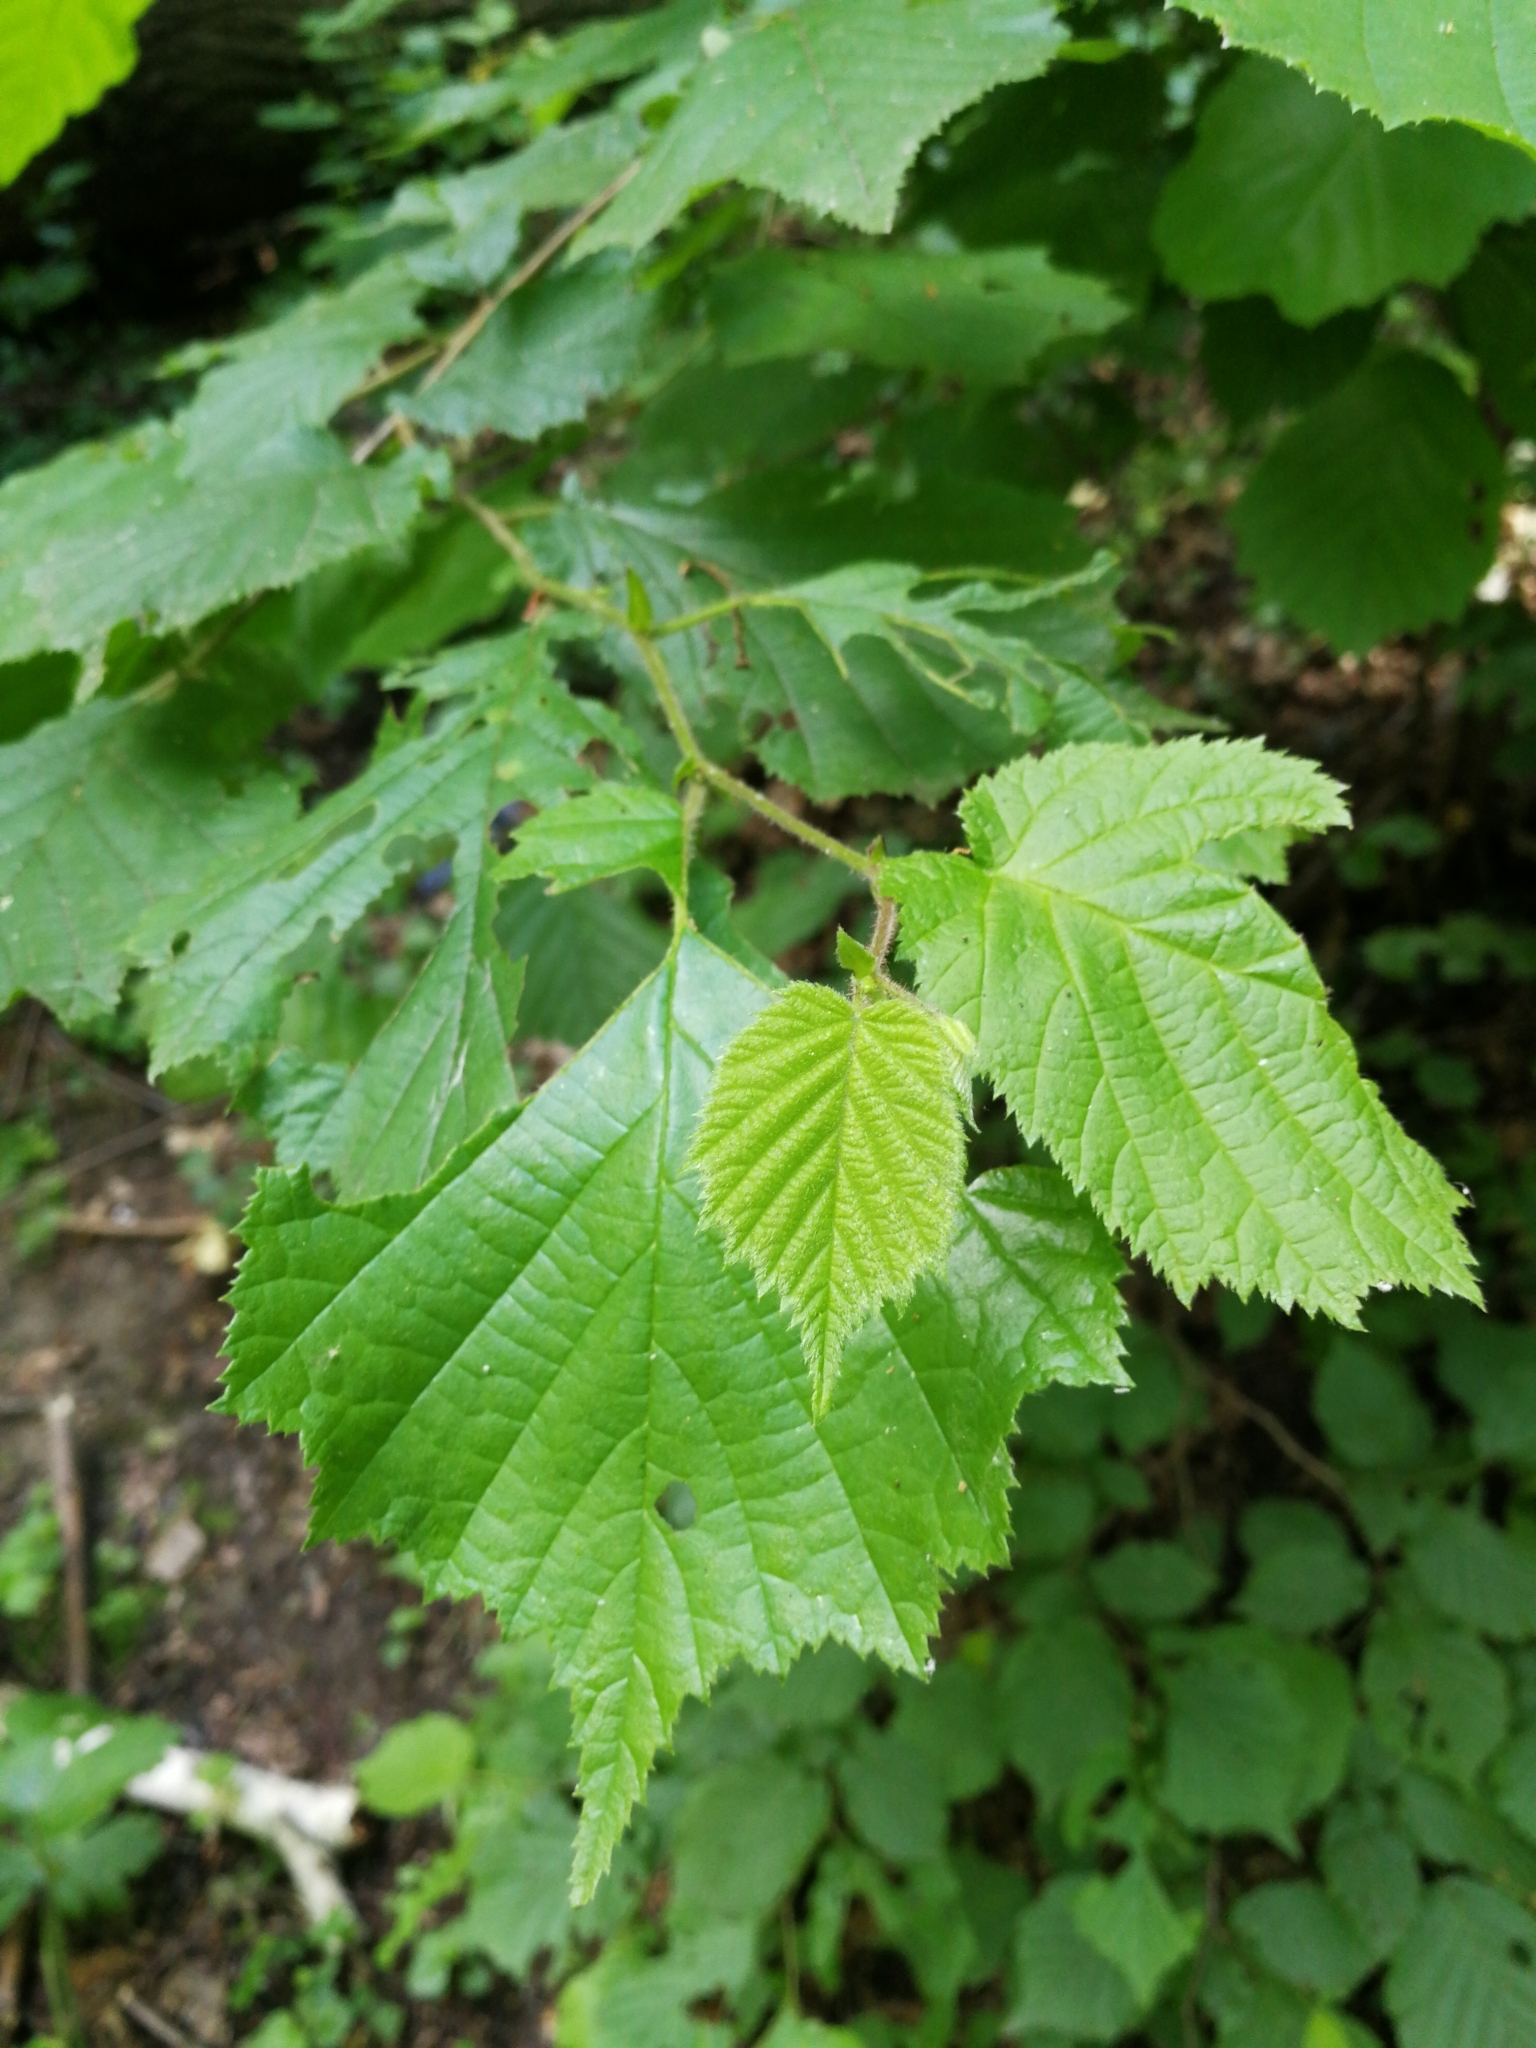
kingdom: Plantae
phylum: Tracheophyta
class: Magnoliopsida
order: Fagales
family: Betulaceae
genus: Corylus
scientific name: Corylus avellana
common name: European hazel
